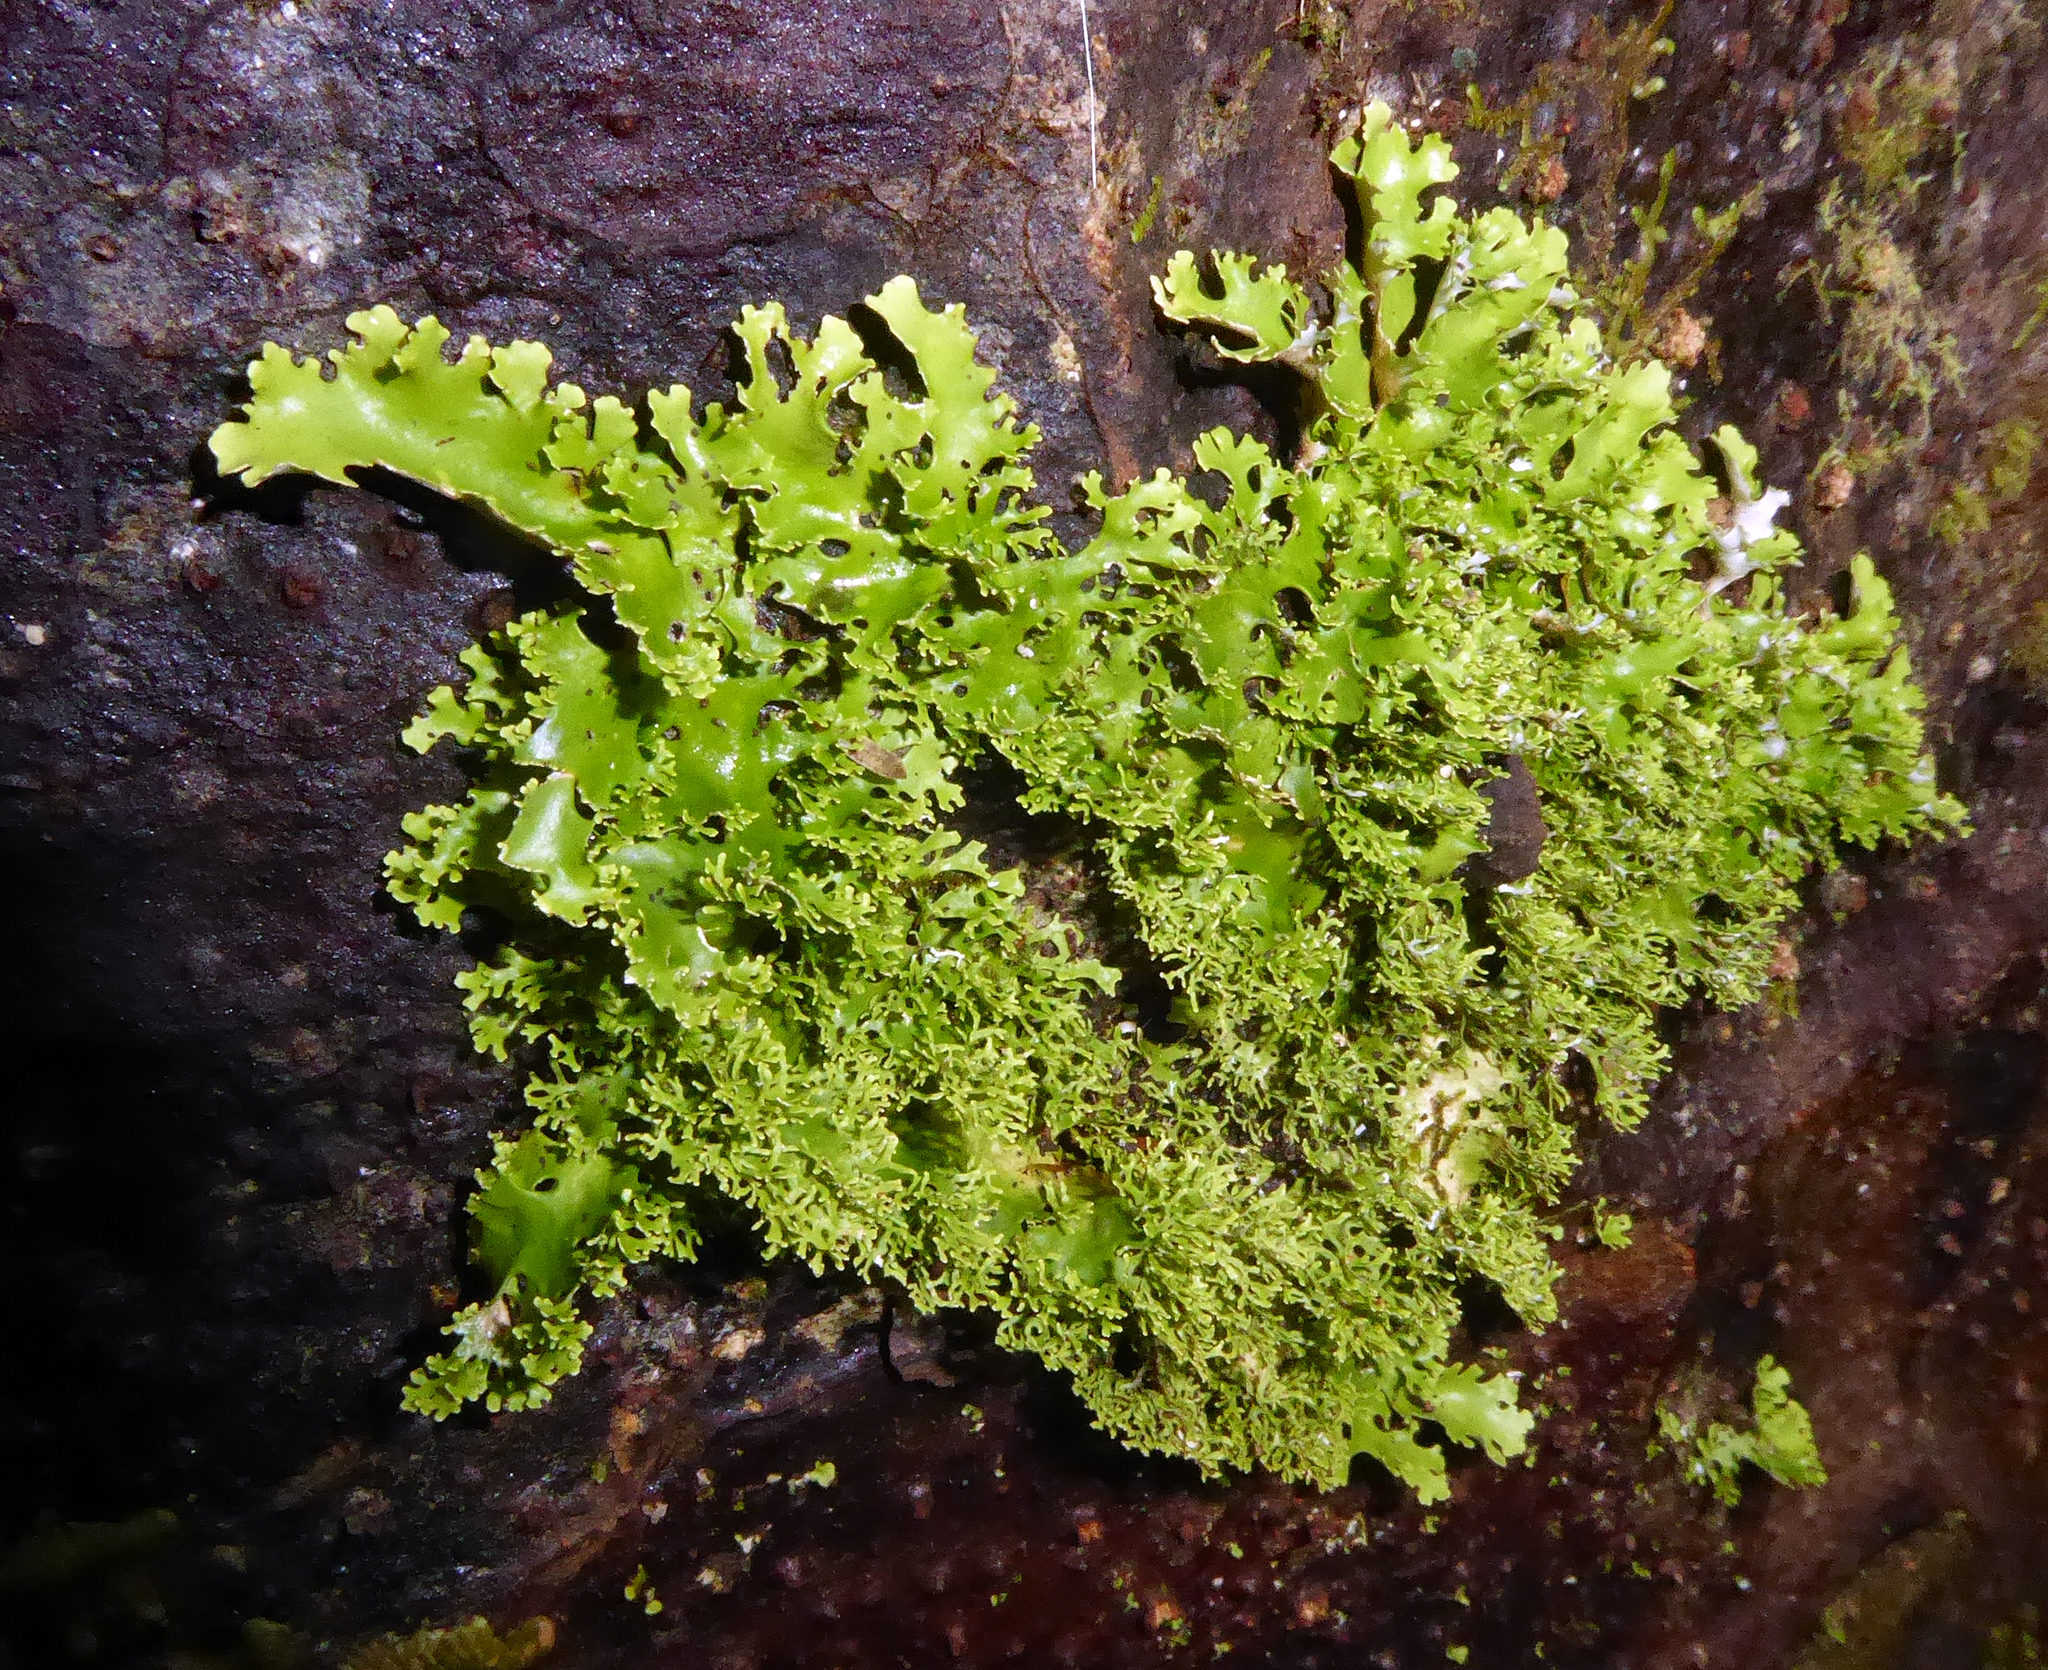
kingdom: Fungi
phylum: Ascomycota
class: Lecanoromycetes
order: Peltigerales
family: Lobariaceae
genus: Pseudocyphellaria
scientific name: Pseudocyphellaria multifida
